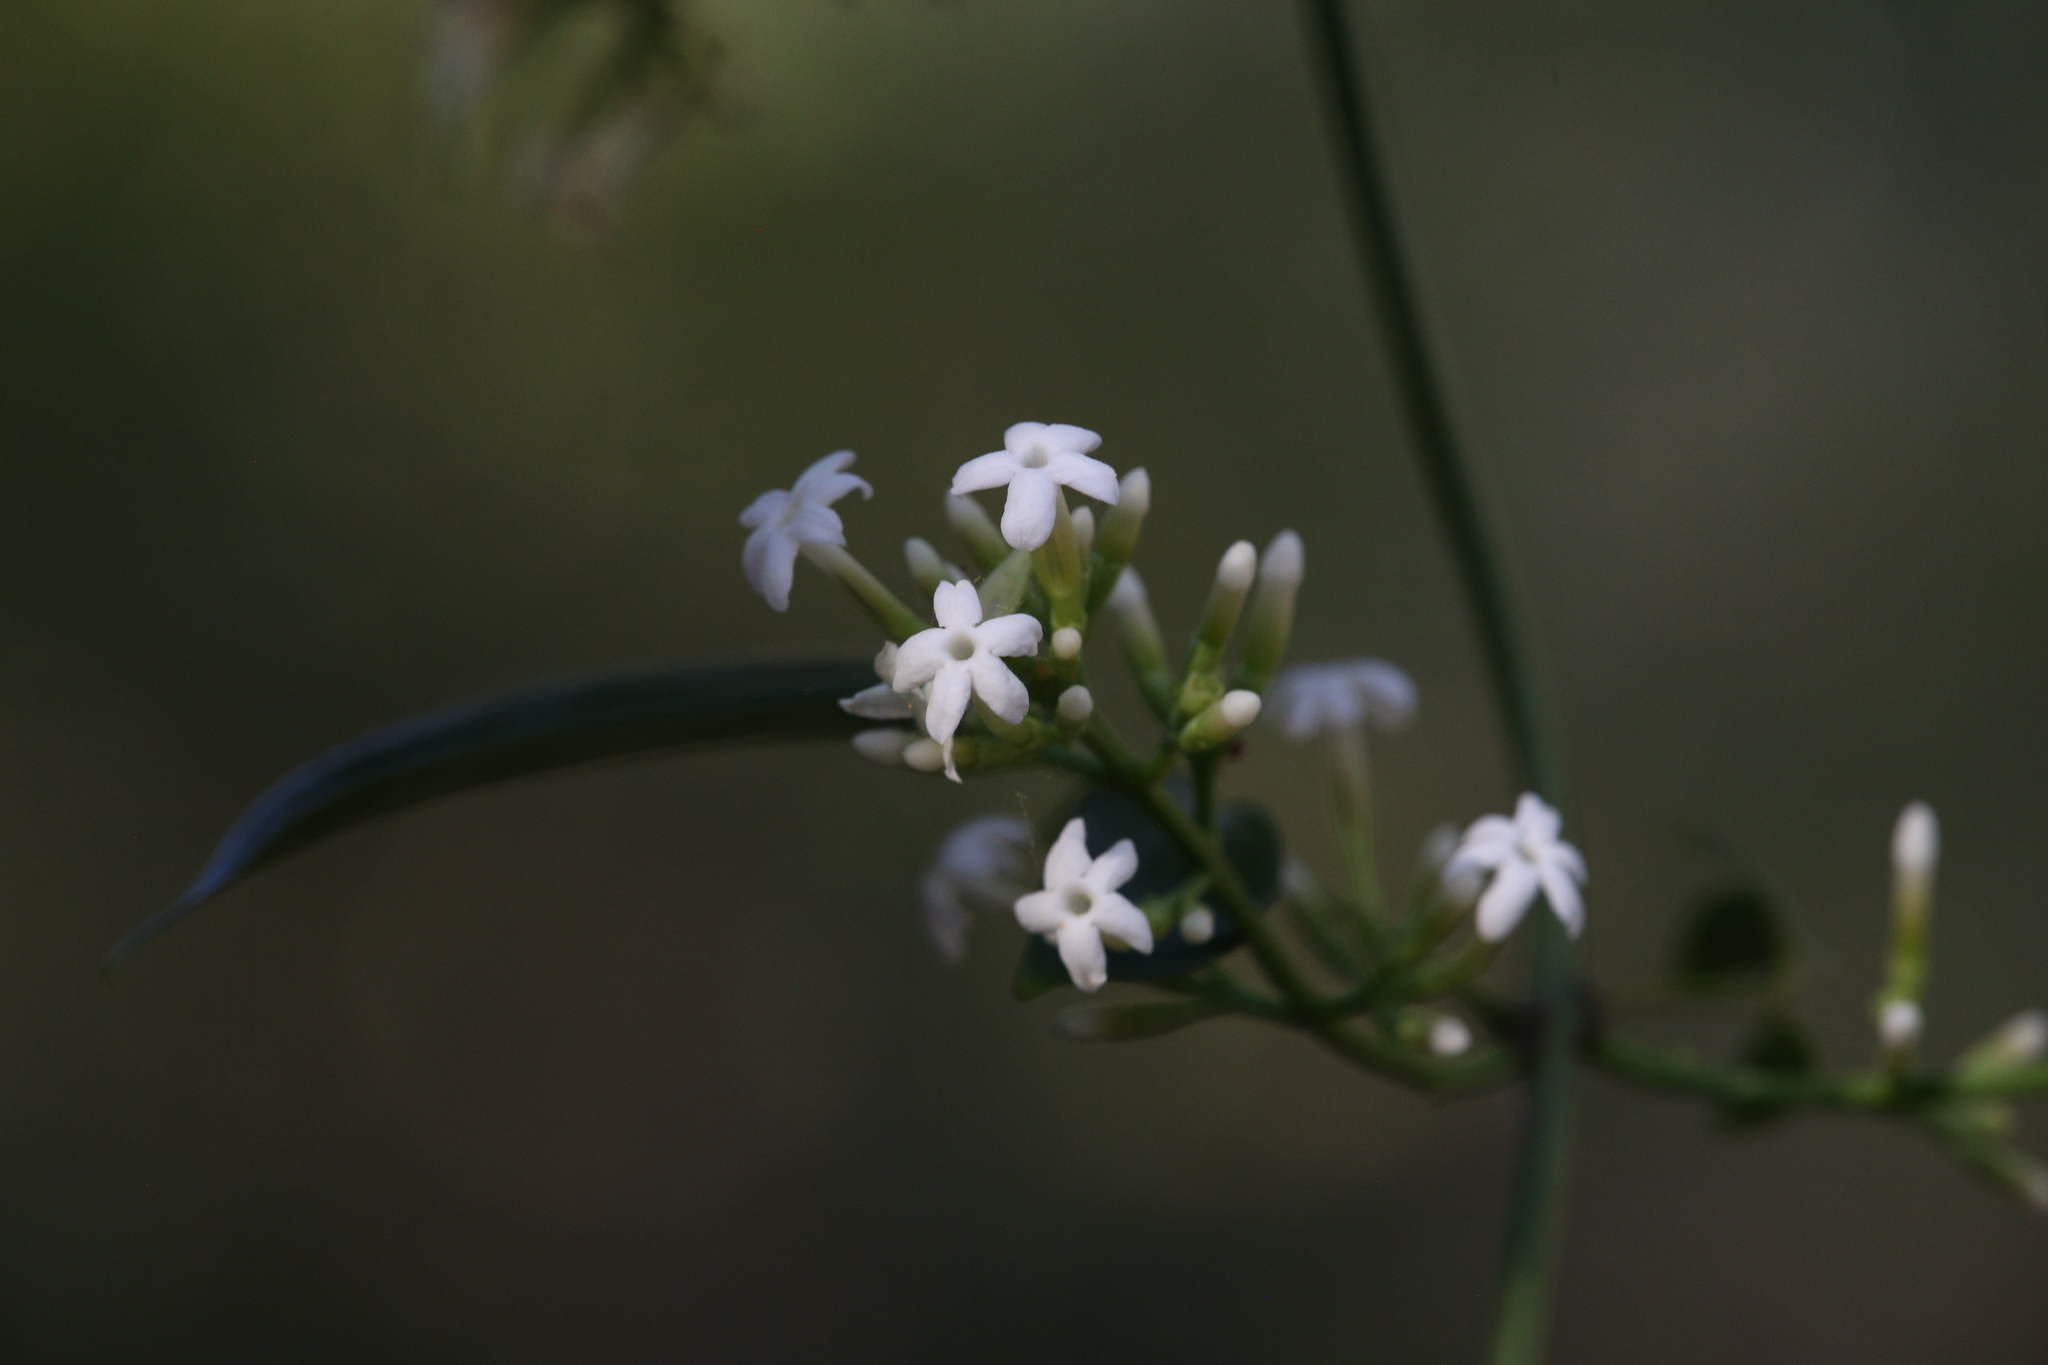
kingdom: Plantae
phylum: Tracheophyta
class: Magnoliopsida
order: Lamiales
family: Oleaceae
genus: Jasminum
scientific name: Jasminum didymum
